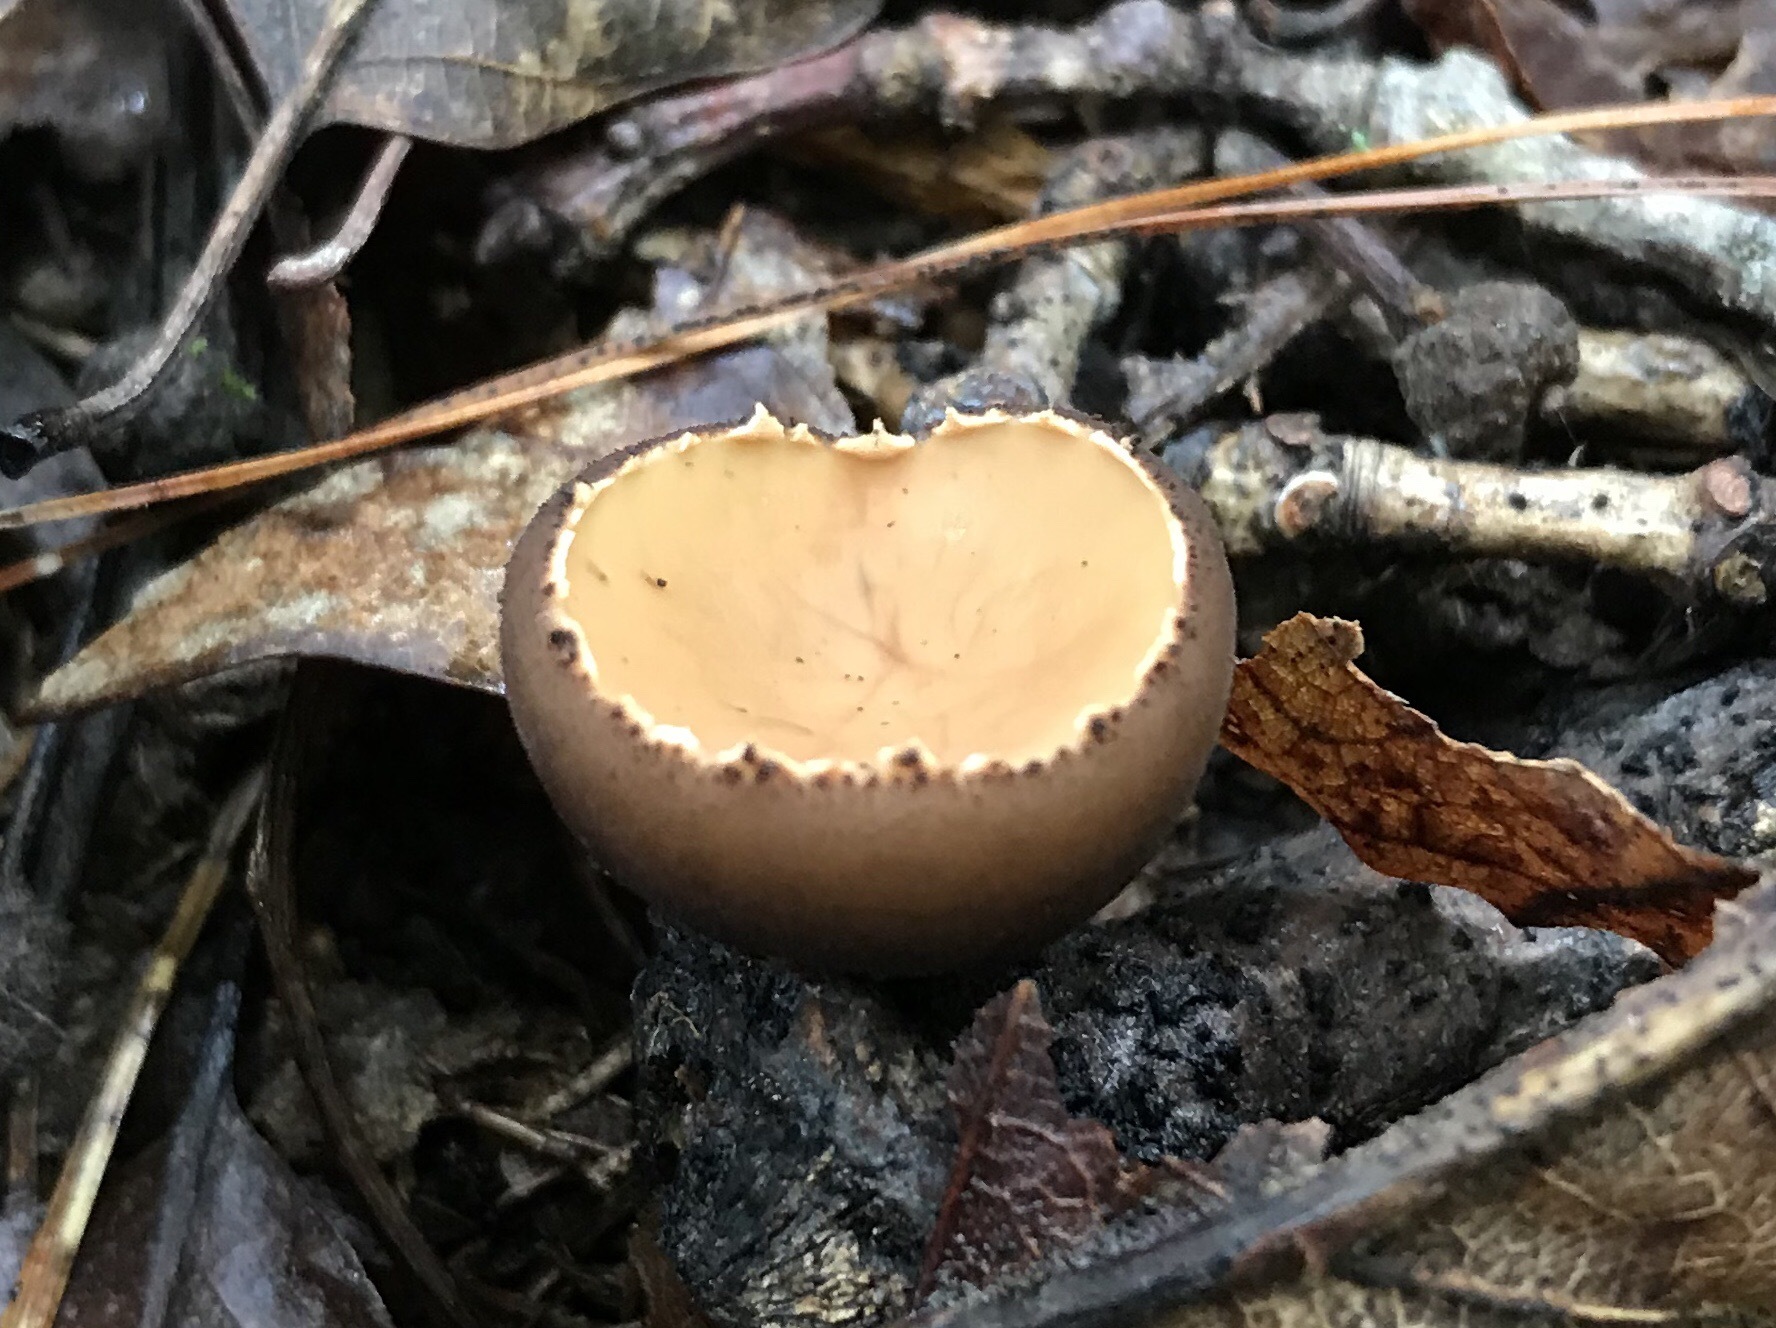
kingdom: Fungi
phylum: Ascomycota
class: Pezizomycetes
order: Pezizales
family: Sarcosomataceae
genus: Galiella
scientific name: Galiella rufa
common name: Hairy rubber cup
